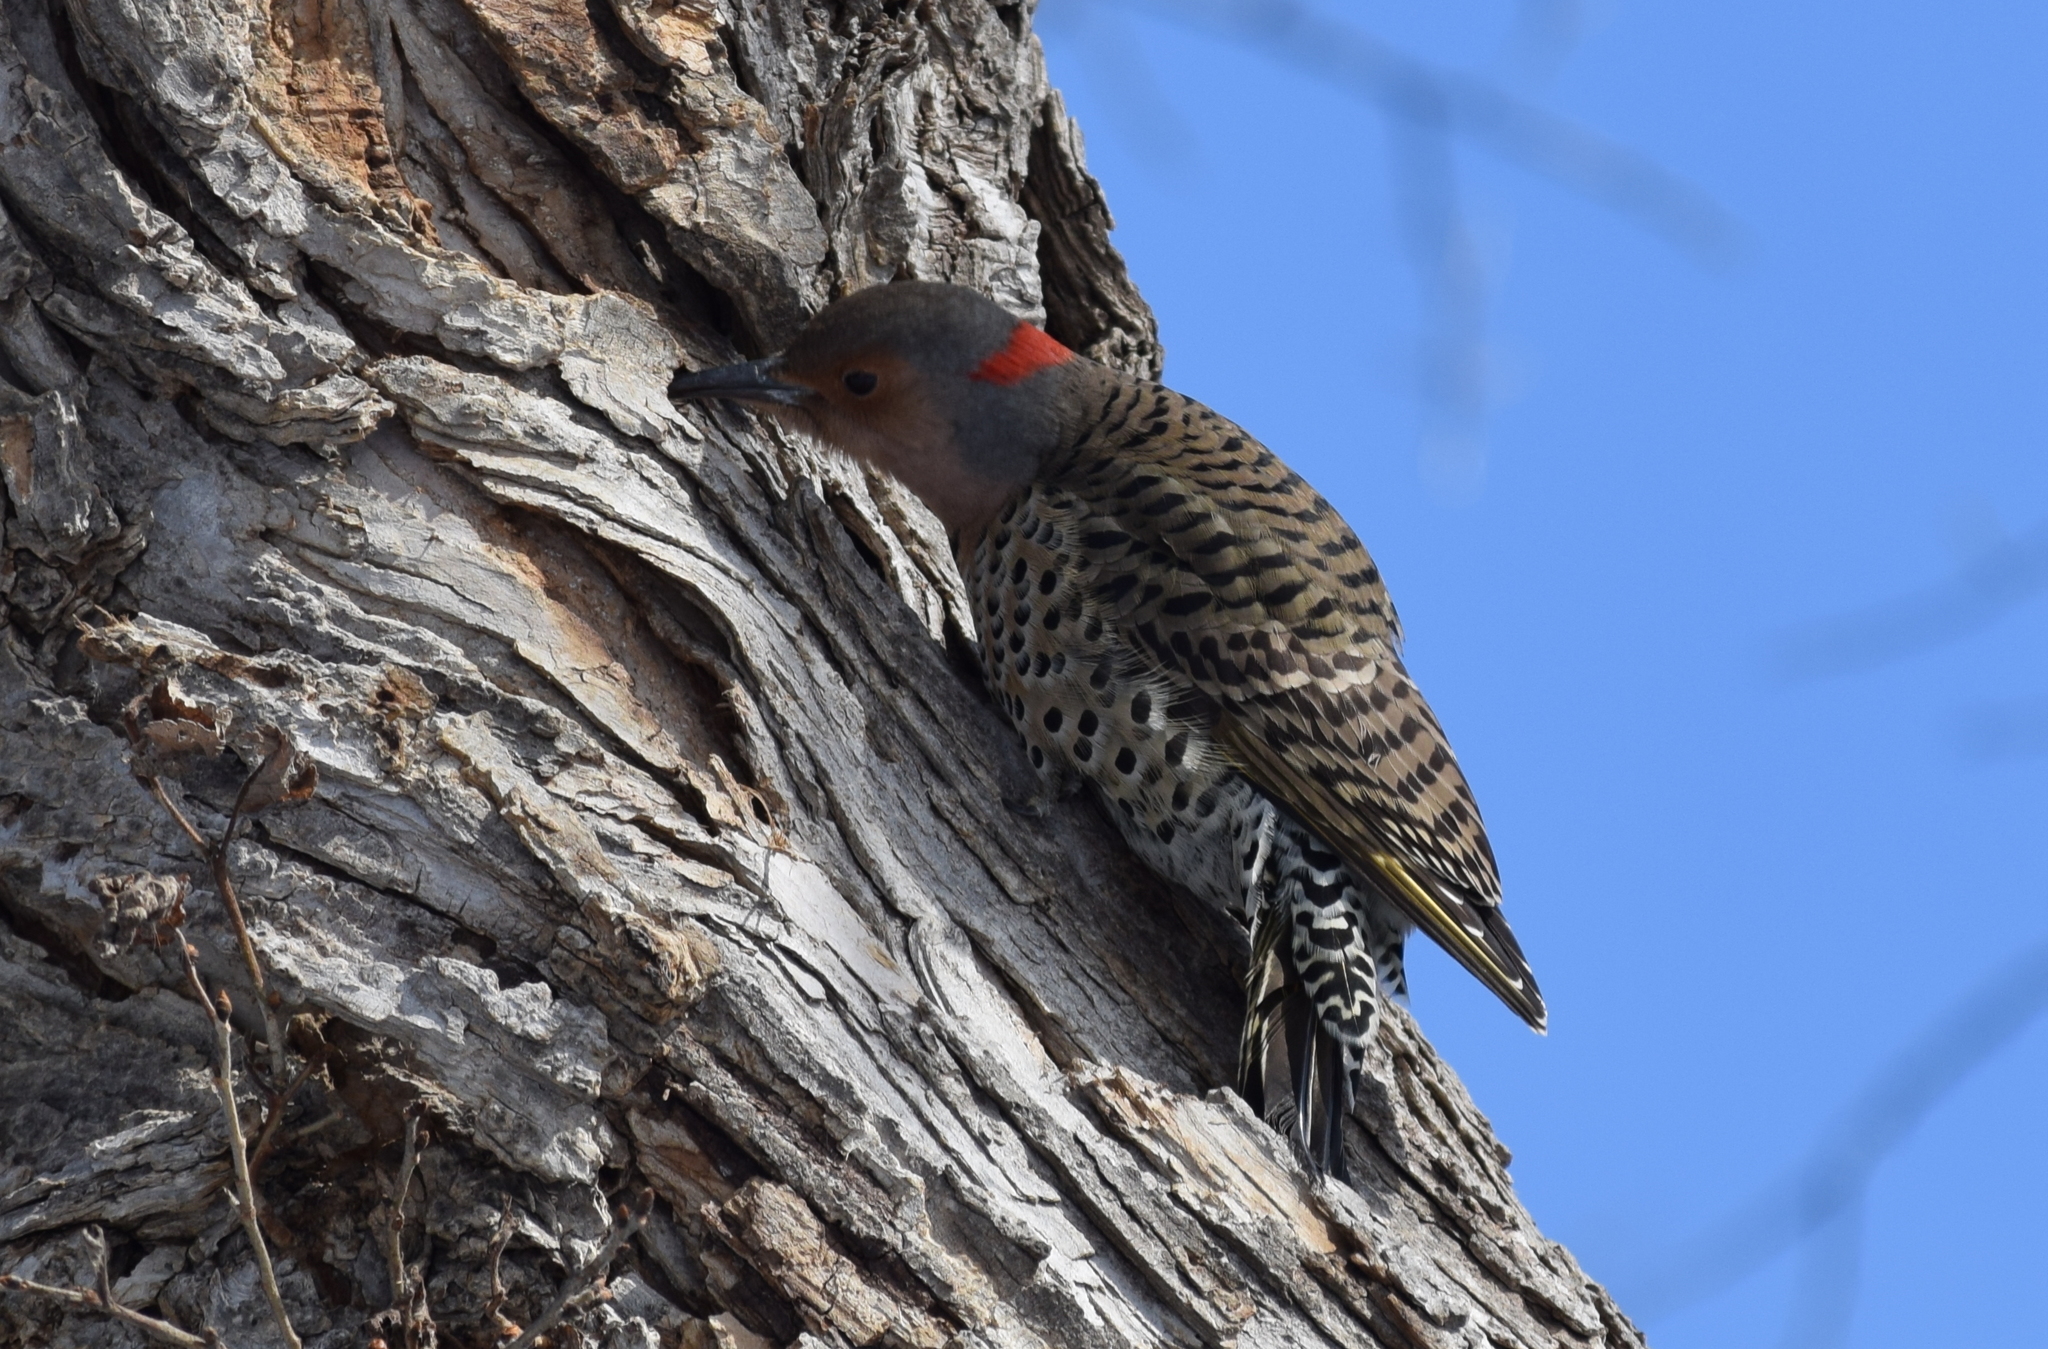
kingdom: Animalia
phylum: Chordata
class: Aves
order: Piciformes
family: Picidae
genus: Colaptes
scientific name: Colaptes auratus
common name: Northern flicker
